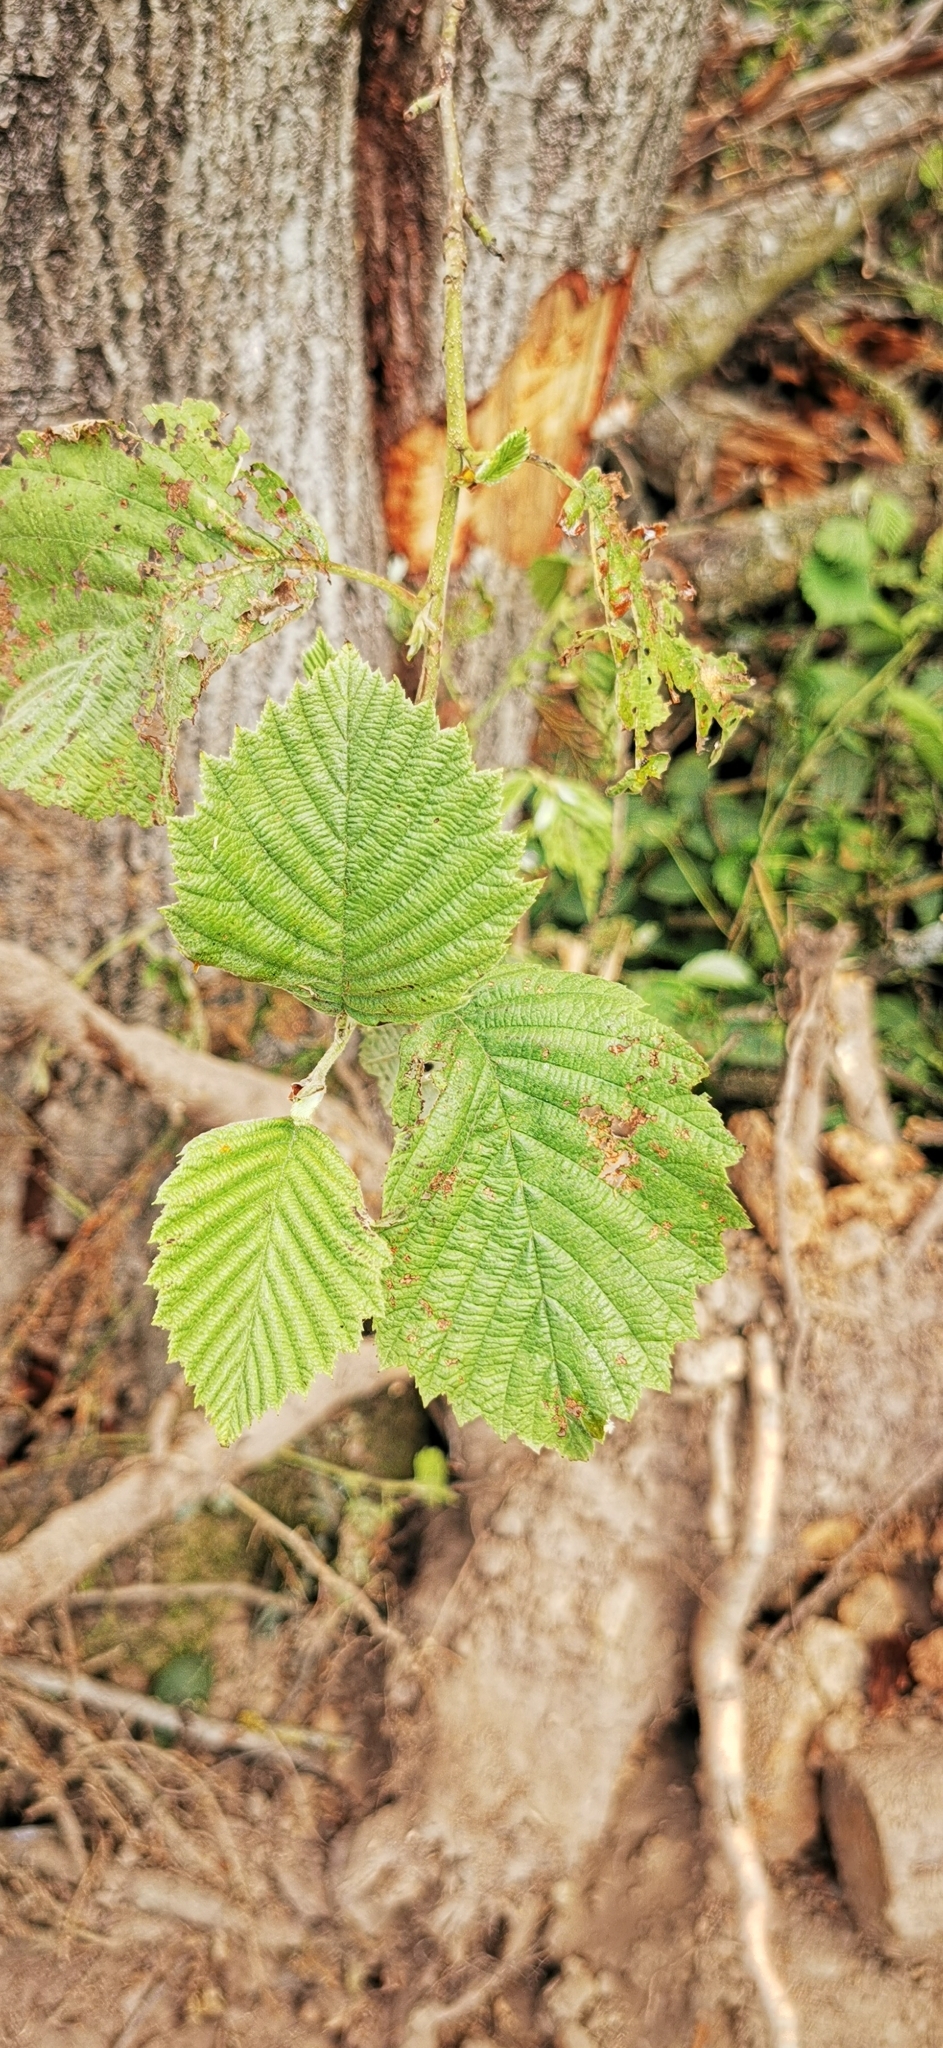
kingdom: Plantae
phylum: Tracheophyta
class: Magnoliopsida
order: Fagales
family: Betulaceae
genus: Alnus
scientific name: Alnus incana
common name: Grey alder
